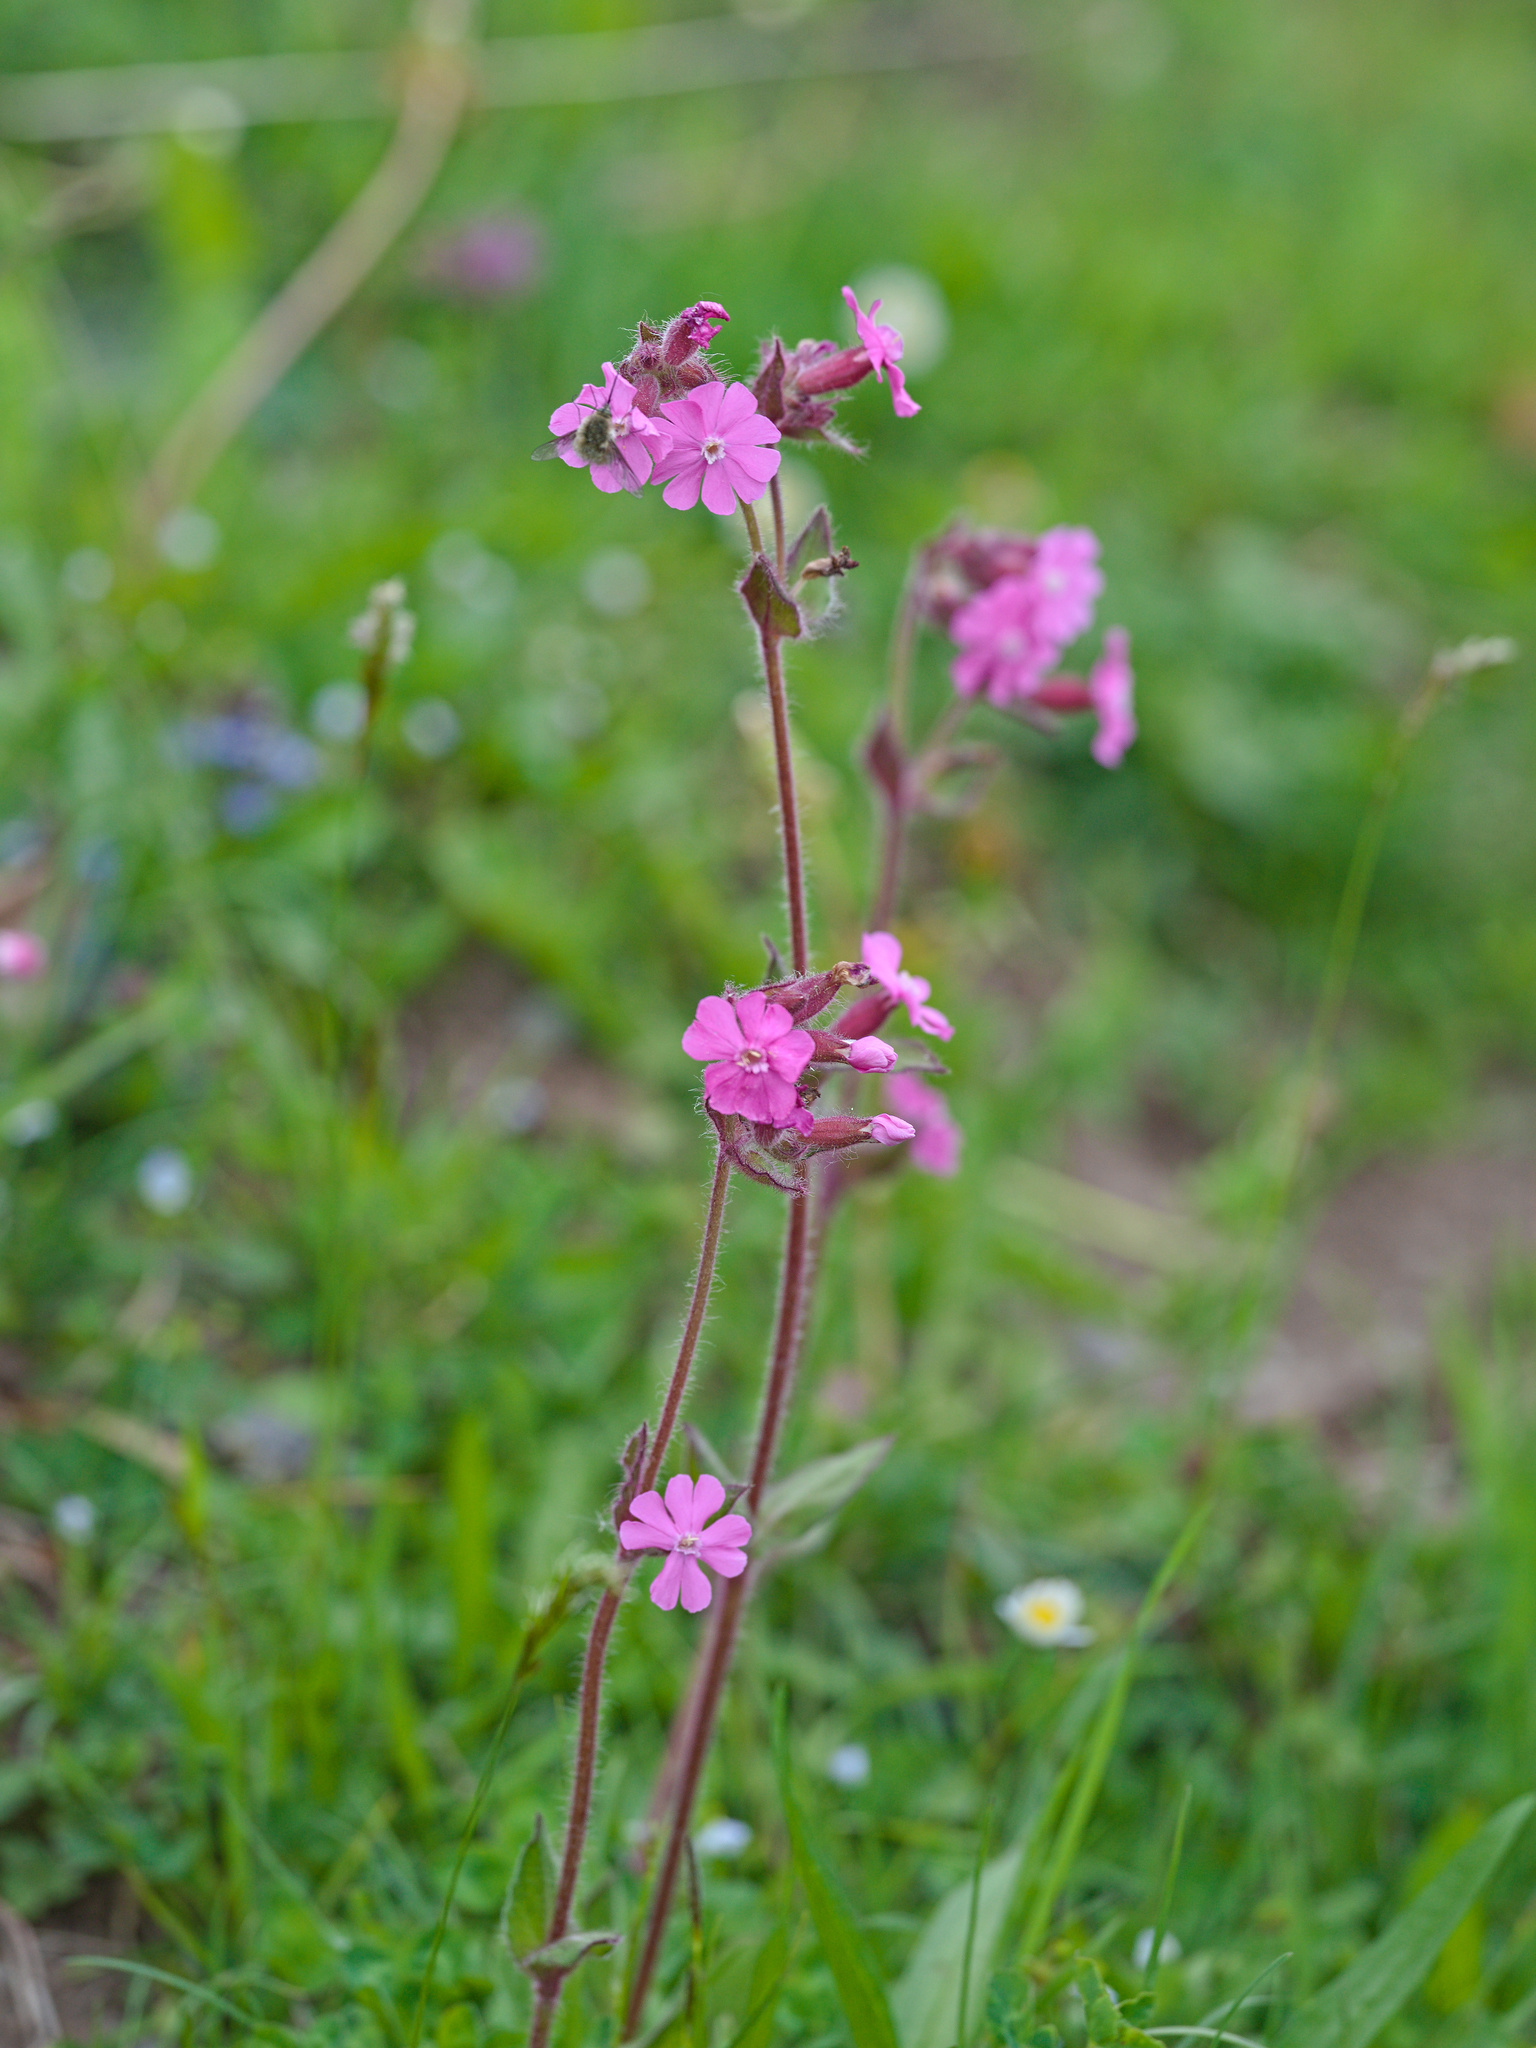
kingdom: Plantae
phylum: Tracheophyta
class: Magnoliopsida
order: Caryophyllales
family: Caryophyllaceae
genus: Silene
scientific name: Silene dioica
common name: Red campion
